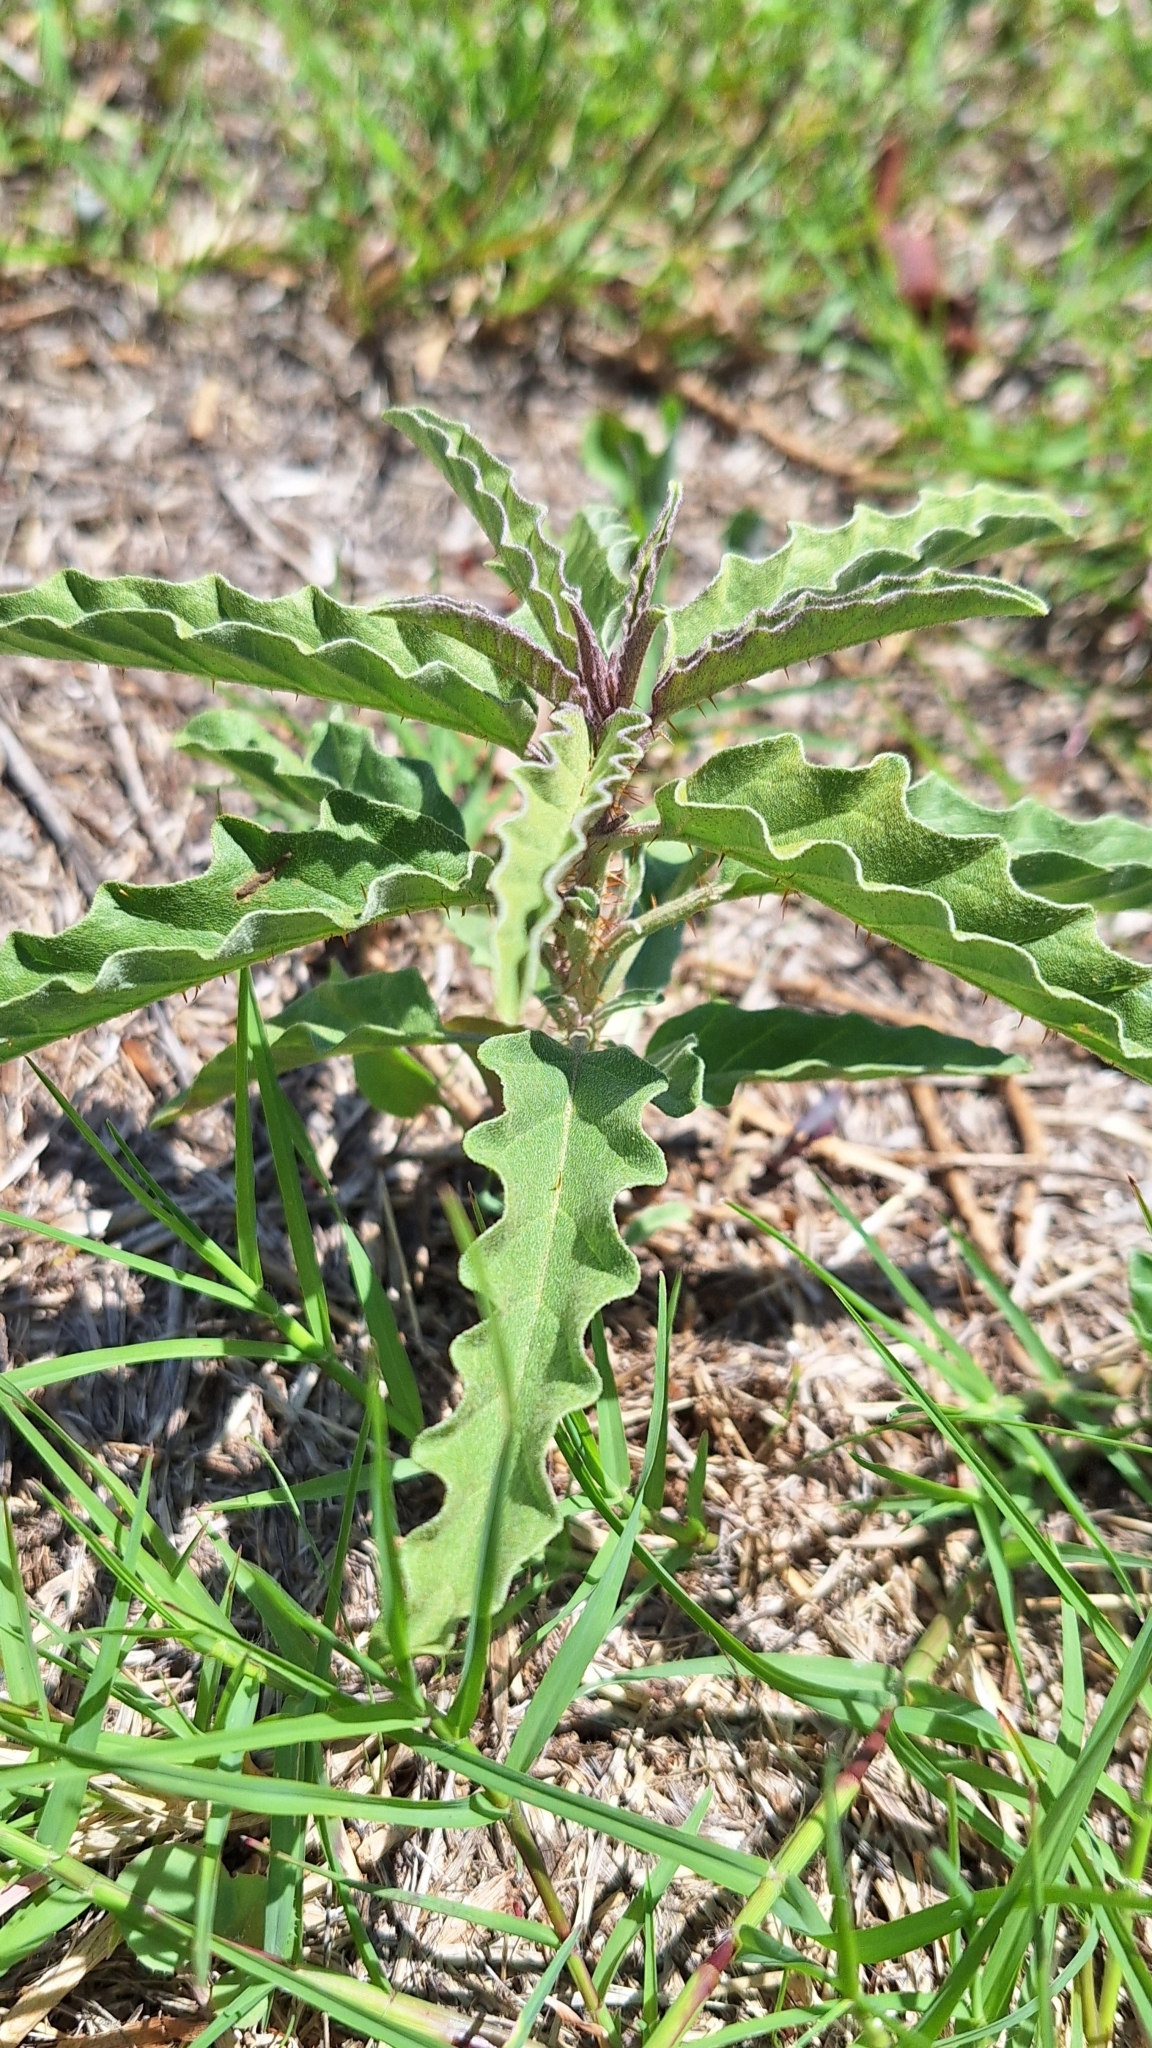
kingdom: Plantae
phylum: Tracheophyta
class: Magnoliopsida
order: Solanales
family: Solanaceae
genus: Solanum
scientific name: Solanum elaeagnifolium
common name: Silverleaf nightshade
